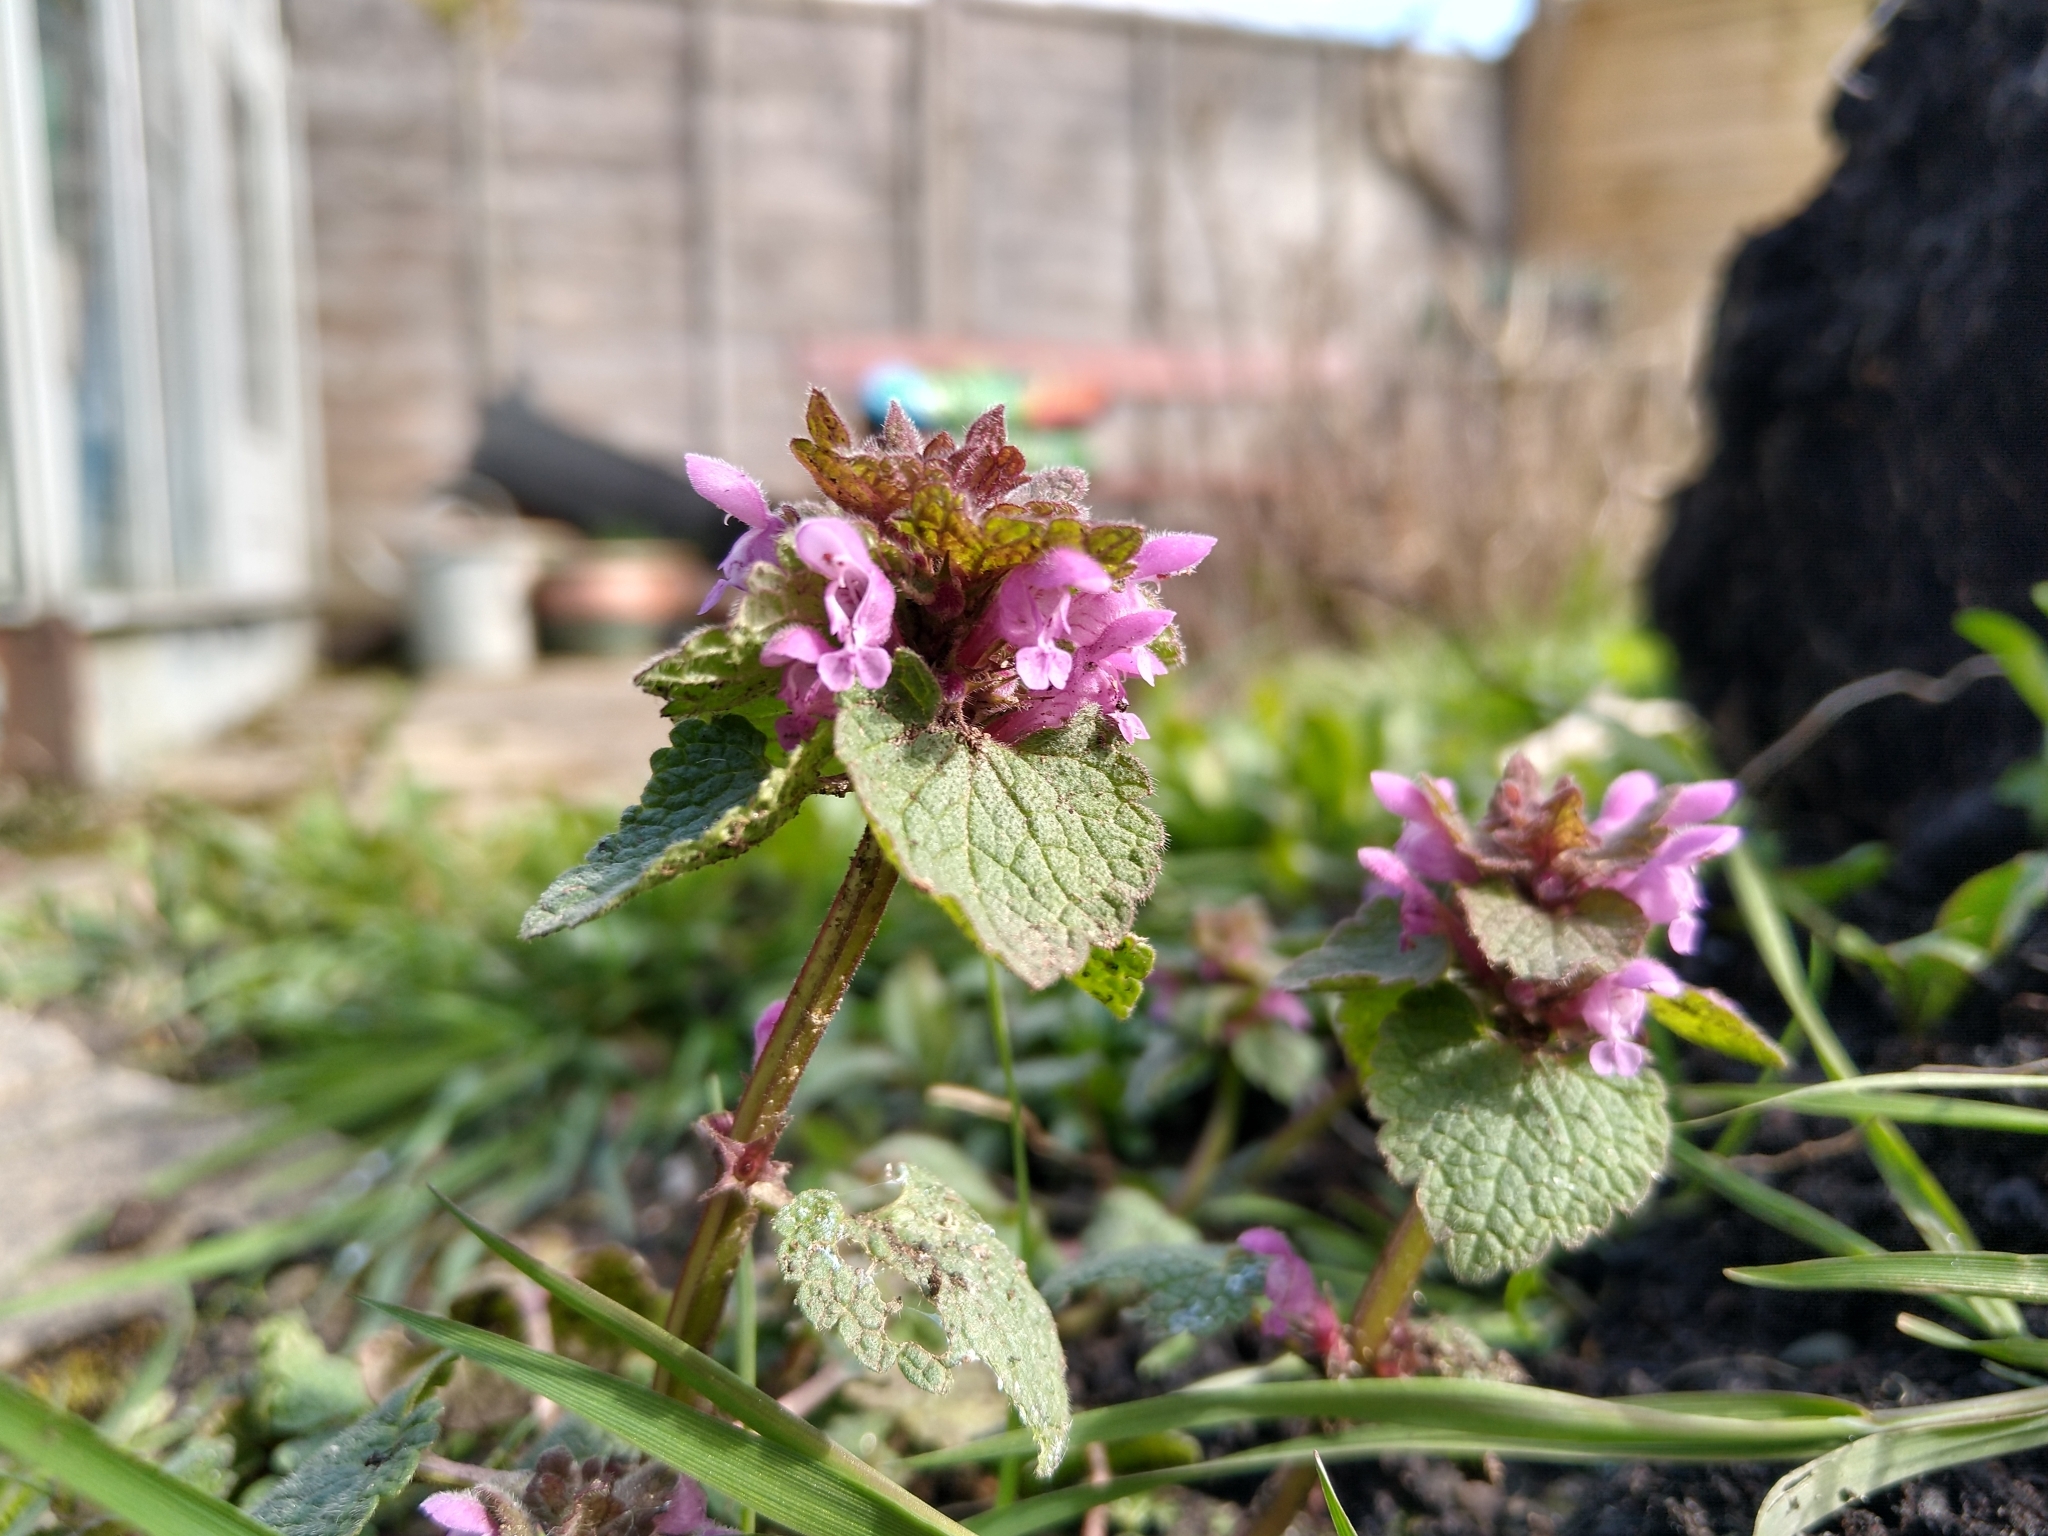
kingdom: Plantae
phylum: Tracheophyta
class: Magnoliopsida
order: Lamiales
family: Lamiaceae
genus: Lamium
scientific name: Lamium purpureum
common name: Red dead-nettle
